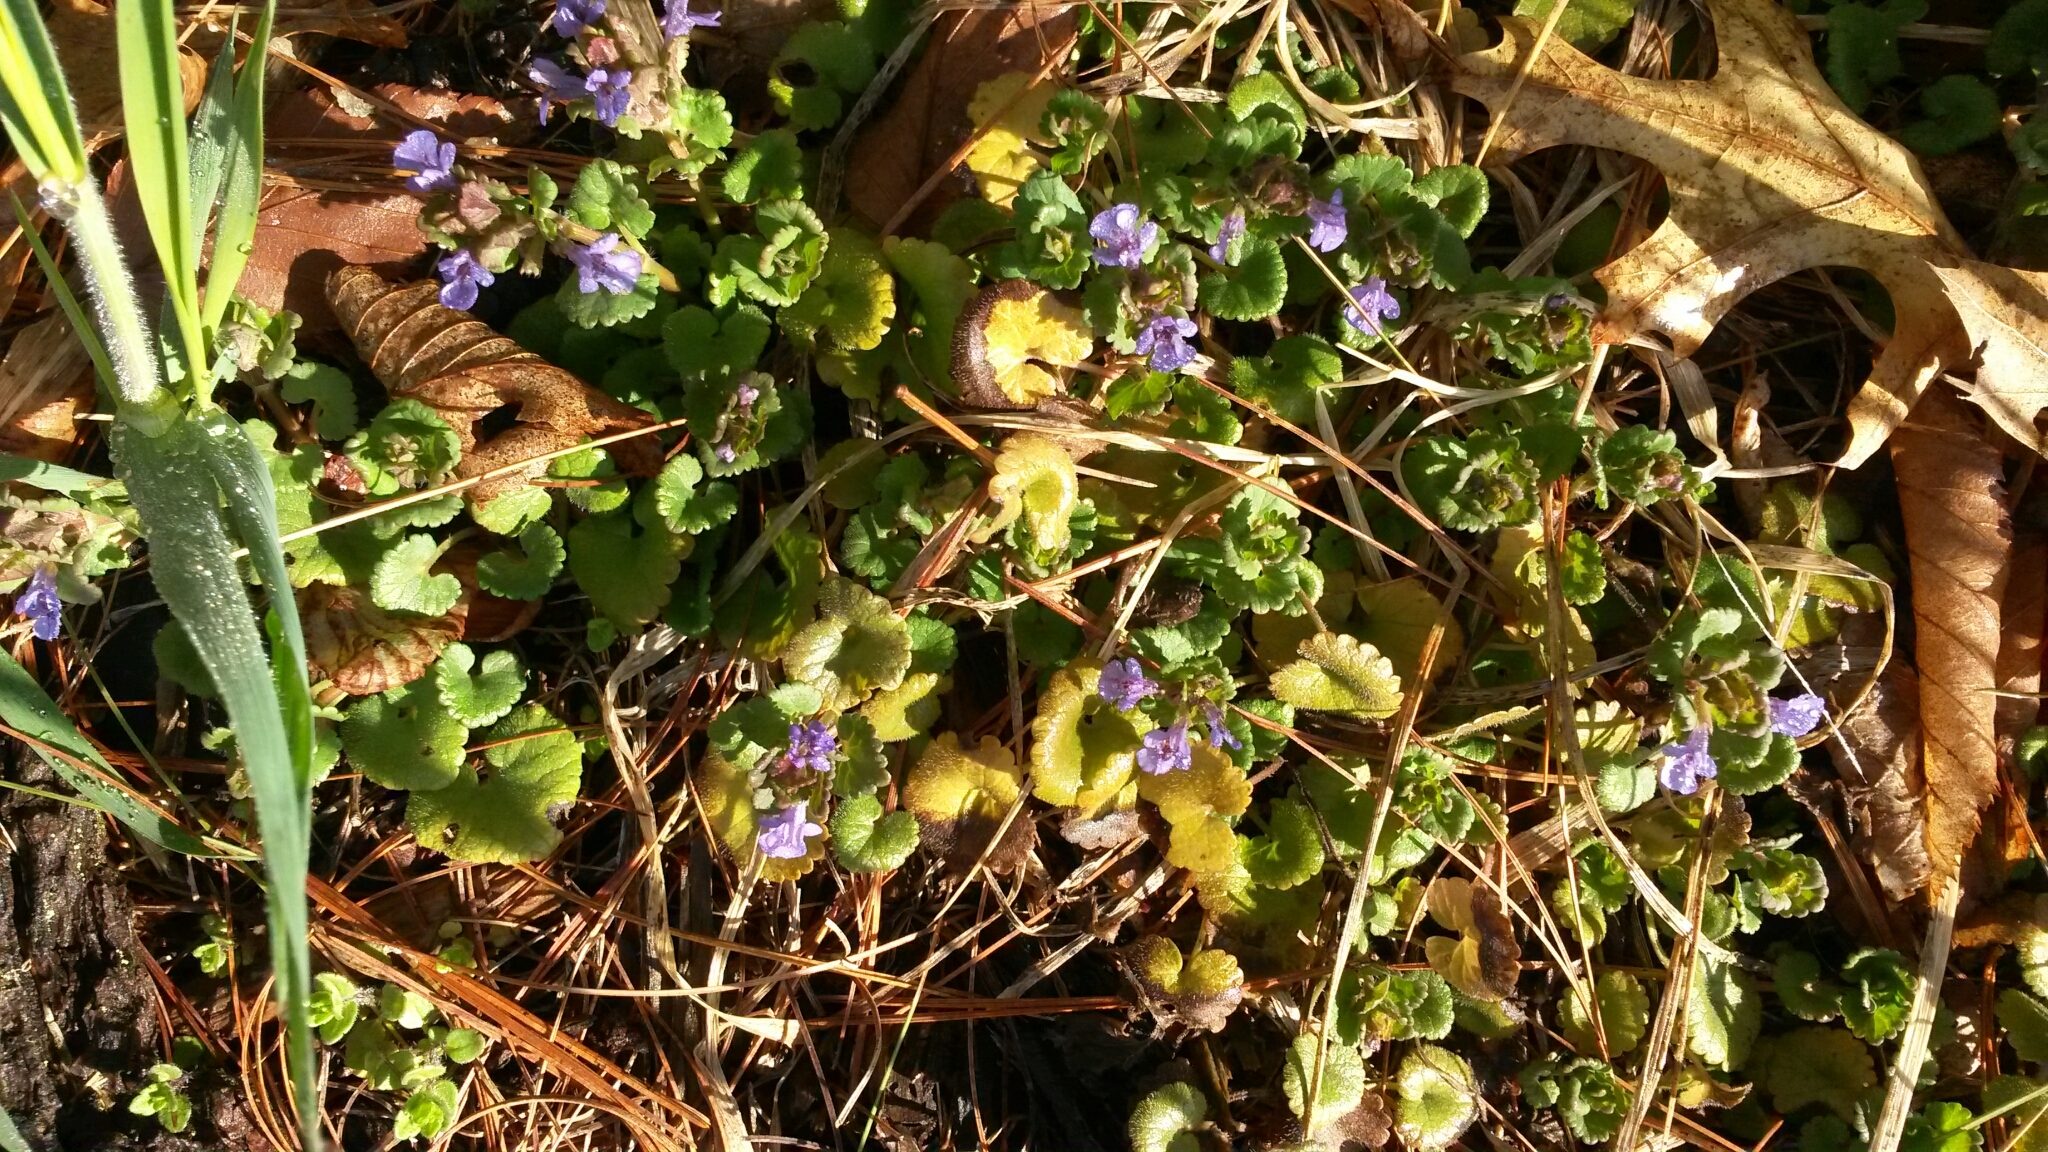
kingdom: Plantae
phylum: Tracheophyta
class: Magnoliopsida
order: Lamiales
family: Lamiaceae
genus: Glechoma
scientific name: Glechoma hederacea
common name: Ground ivy
